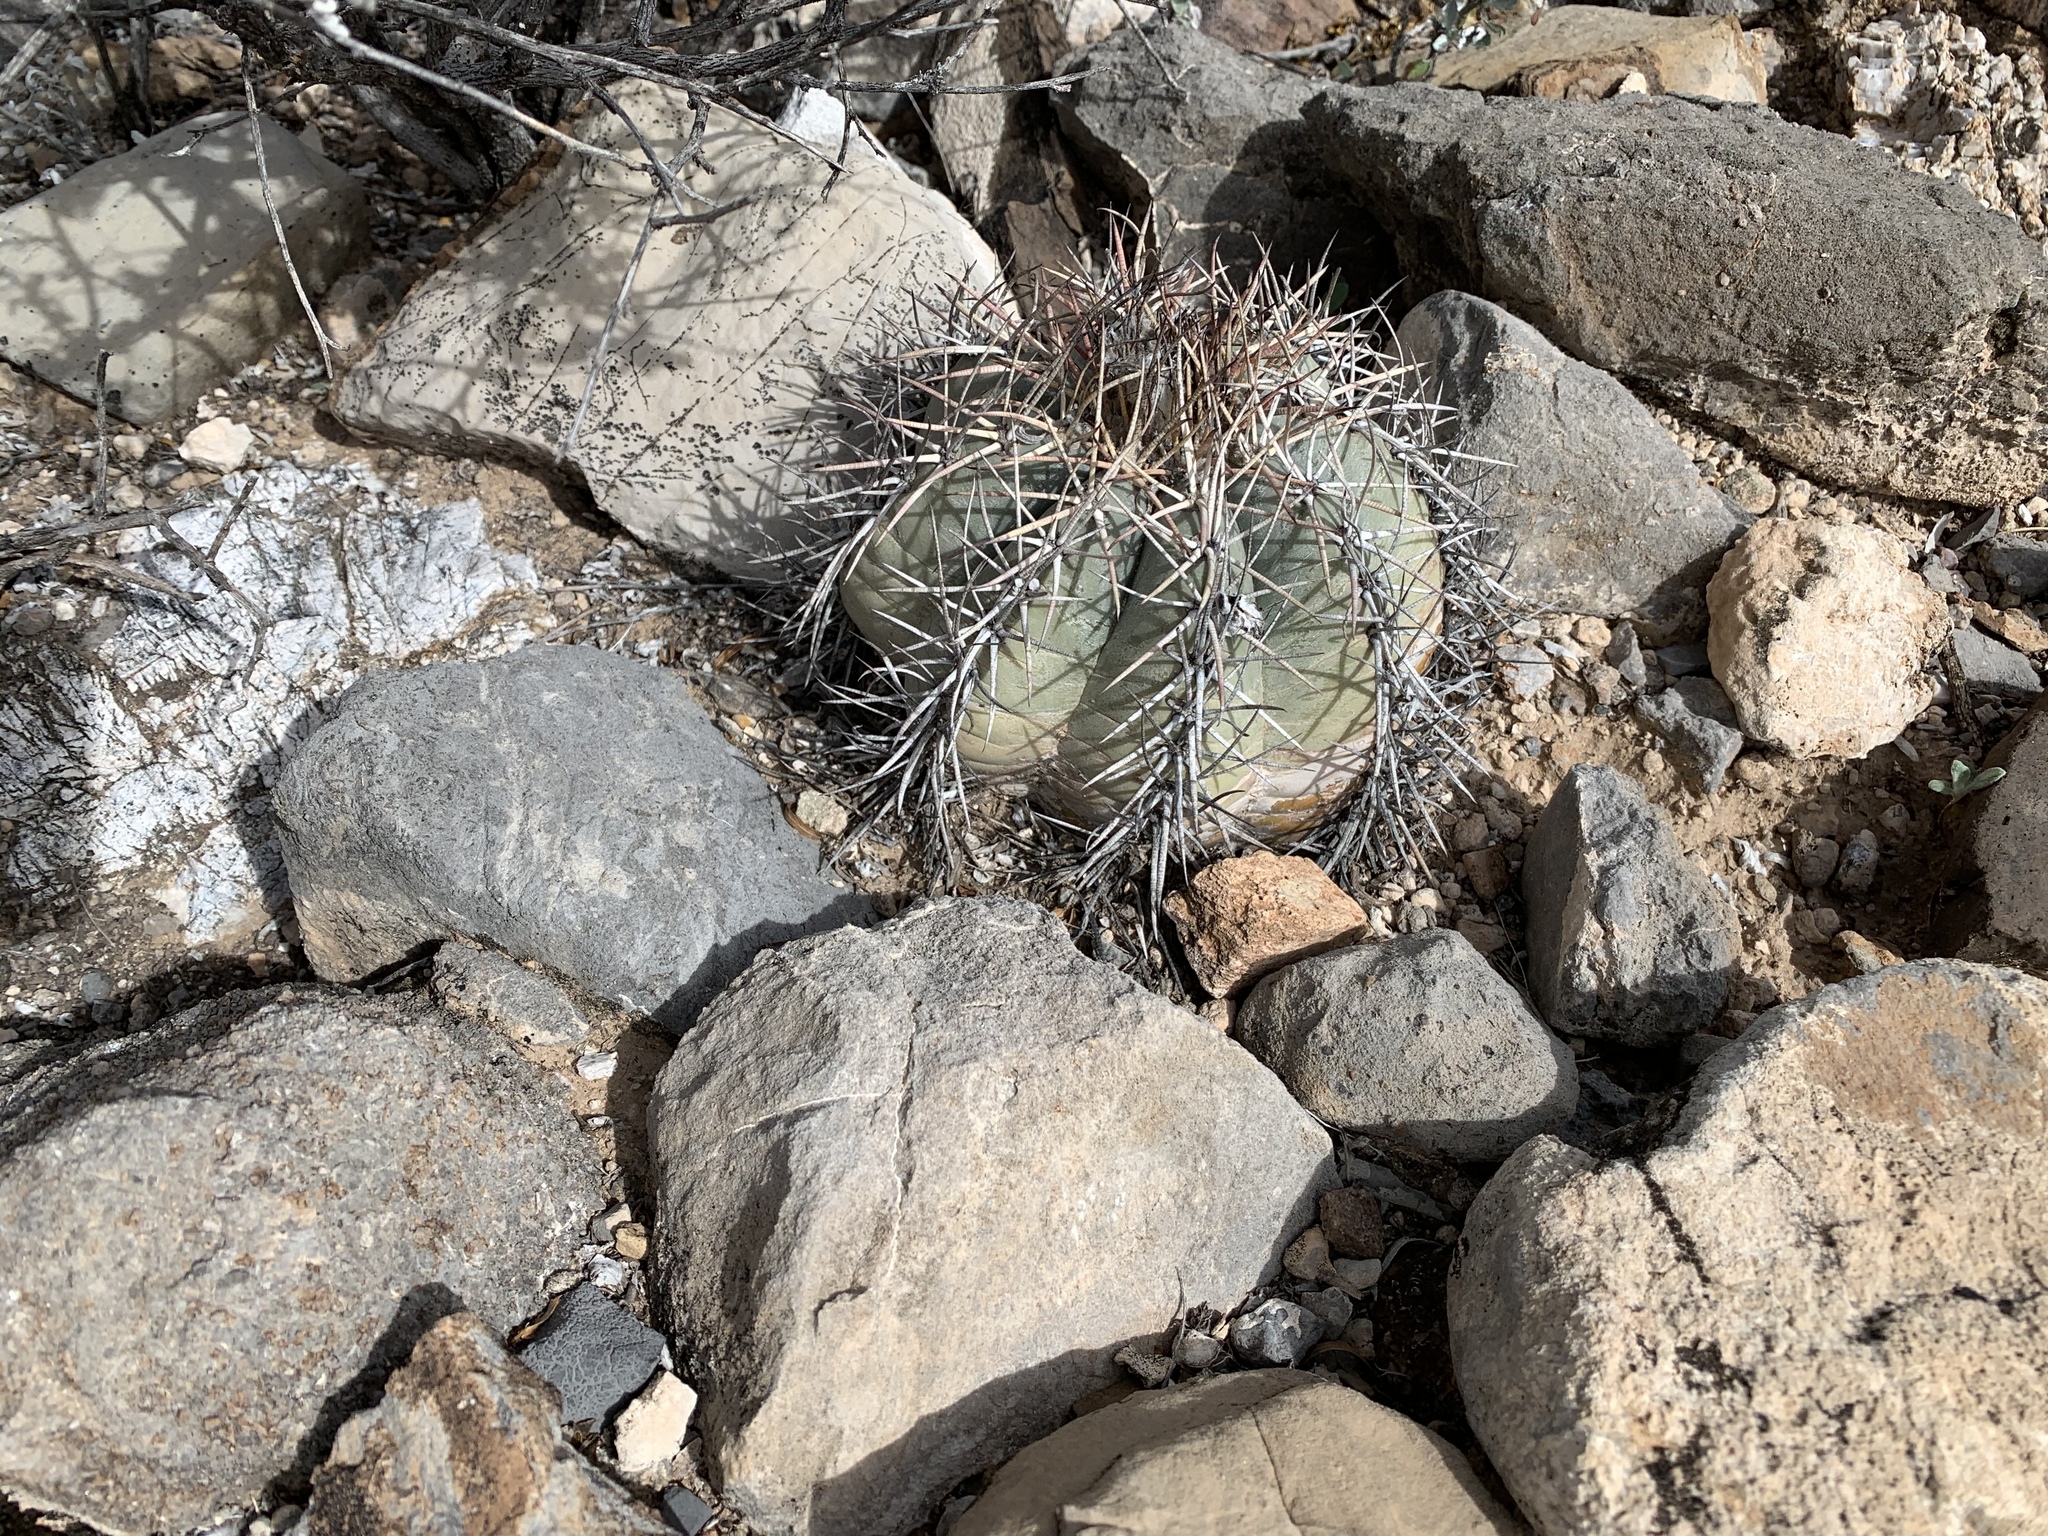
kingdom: Plantae
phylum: Tracheophyta
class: Magnoliopsida
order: Caryophyllales
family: Cactaceae
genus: Echinocactus
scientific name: Echinocactus horizonthalonius
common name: Devilshead
